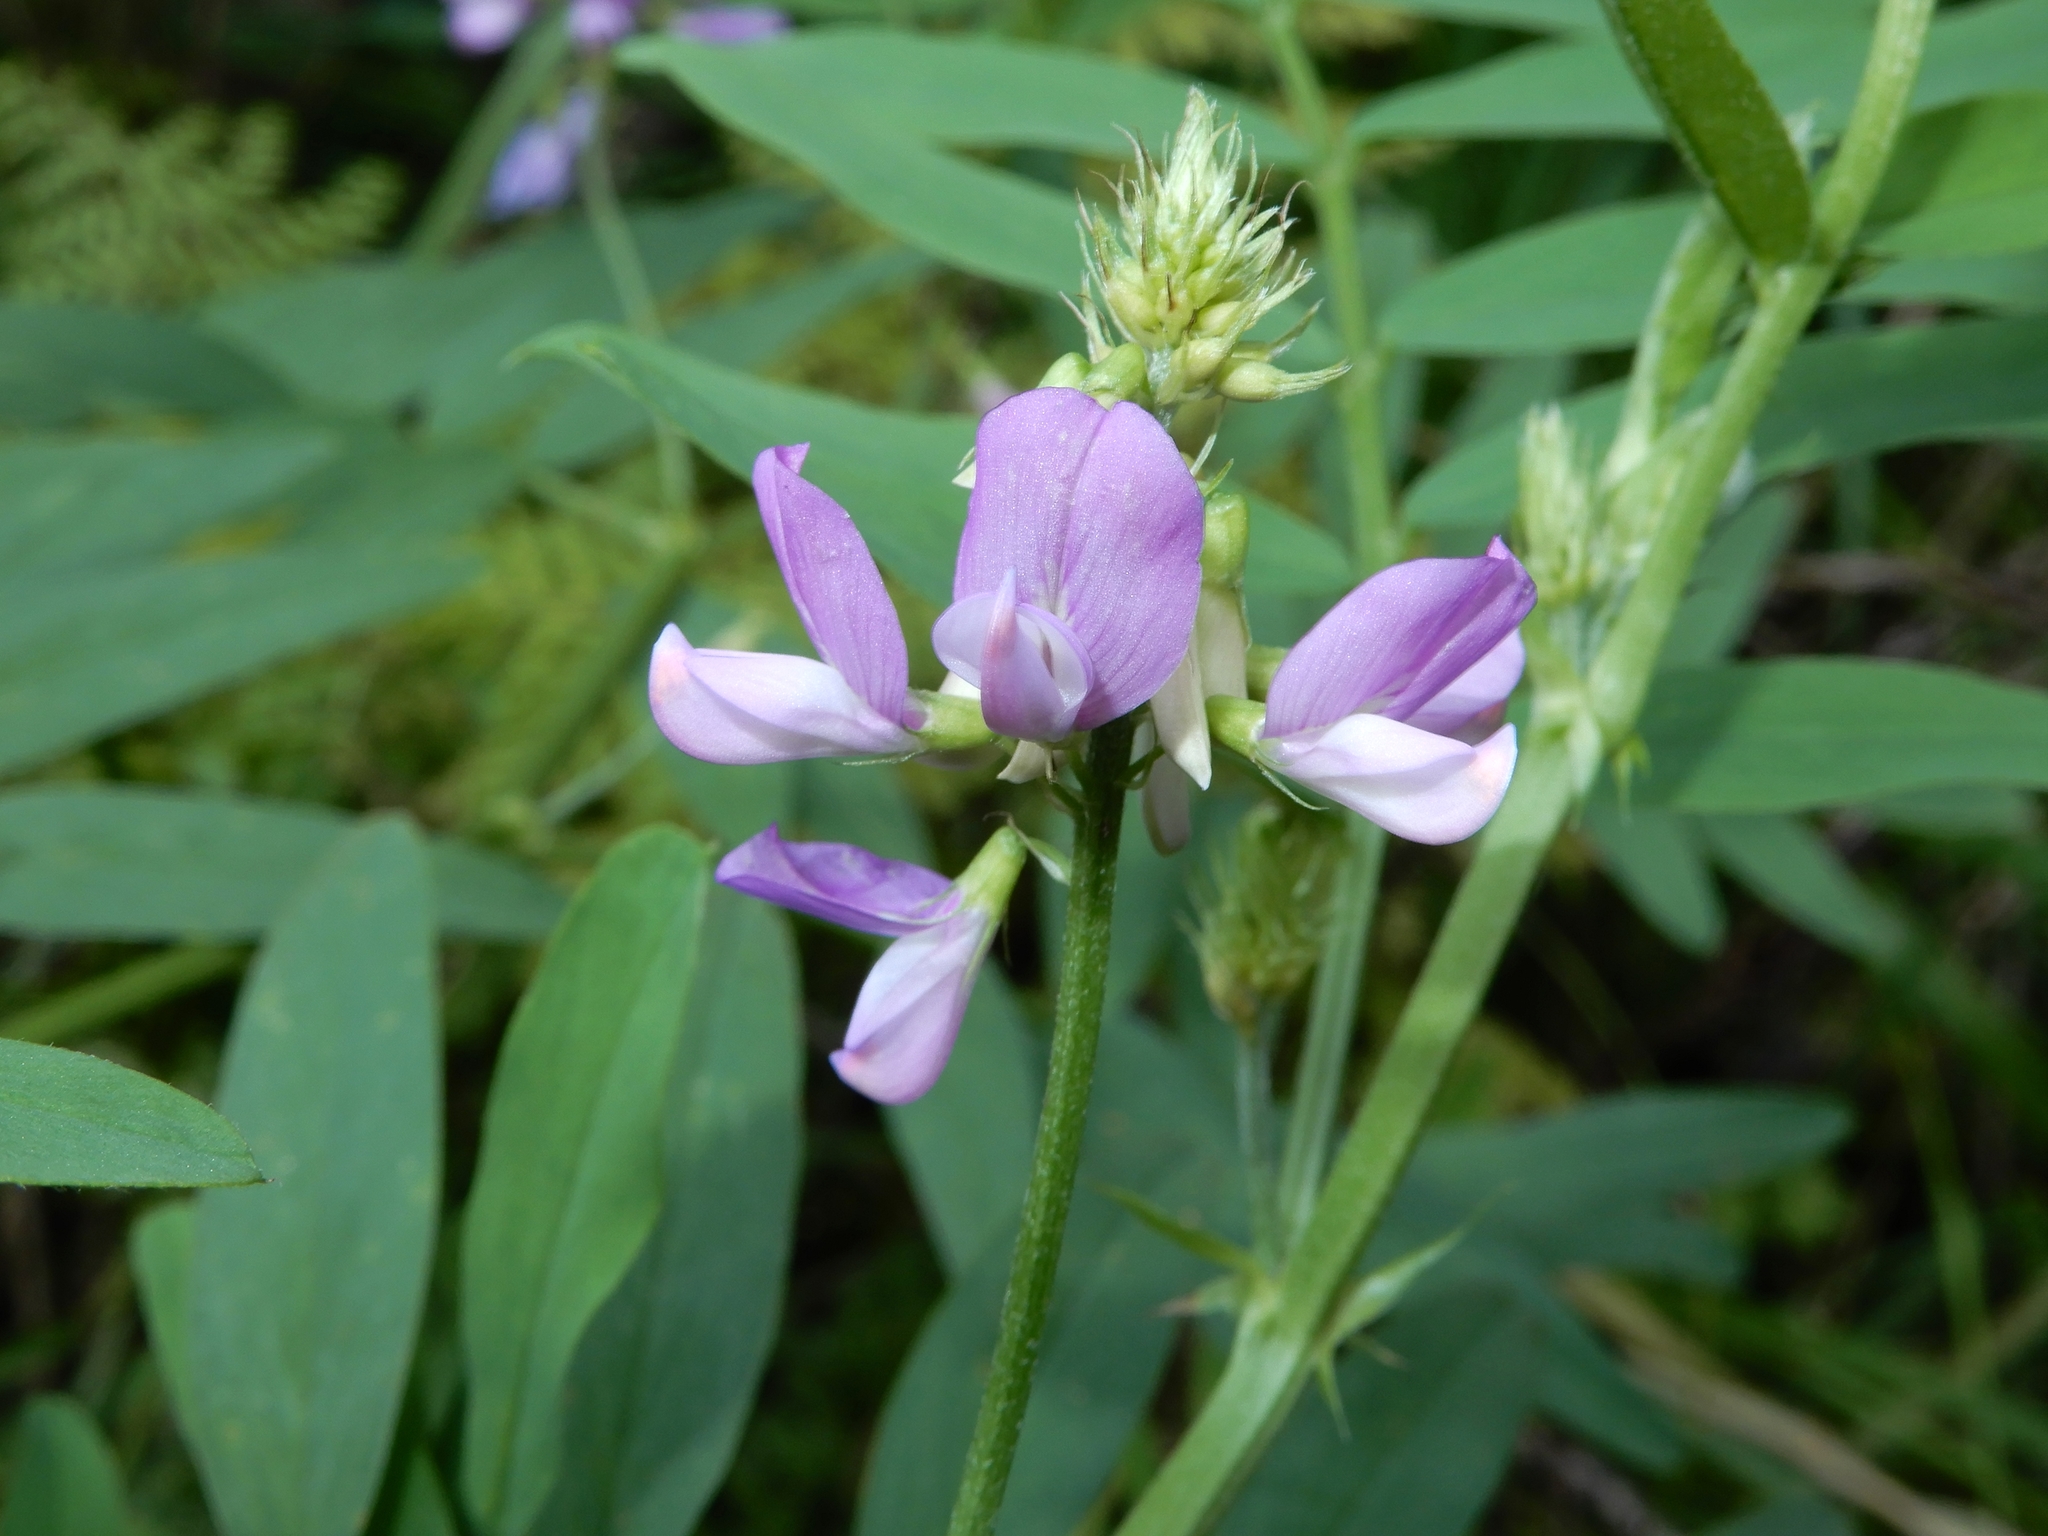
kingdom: Plantae
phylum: Tracheophyta
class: Magnoliopsida
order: Fabales
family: Fabaceae
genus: Galega
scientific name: Galega officinalis
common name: Goat's-rue
